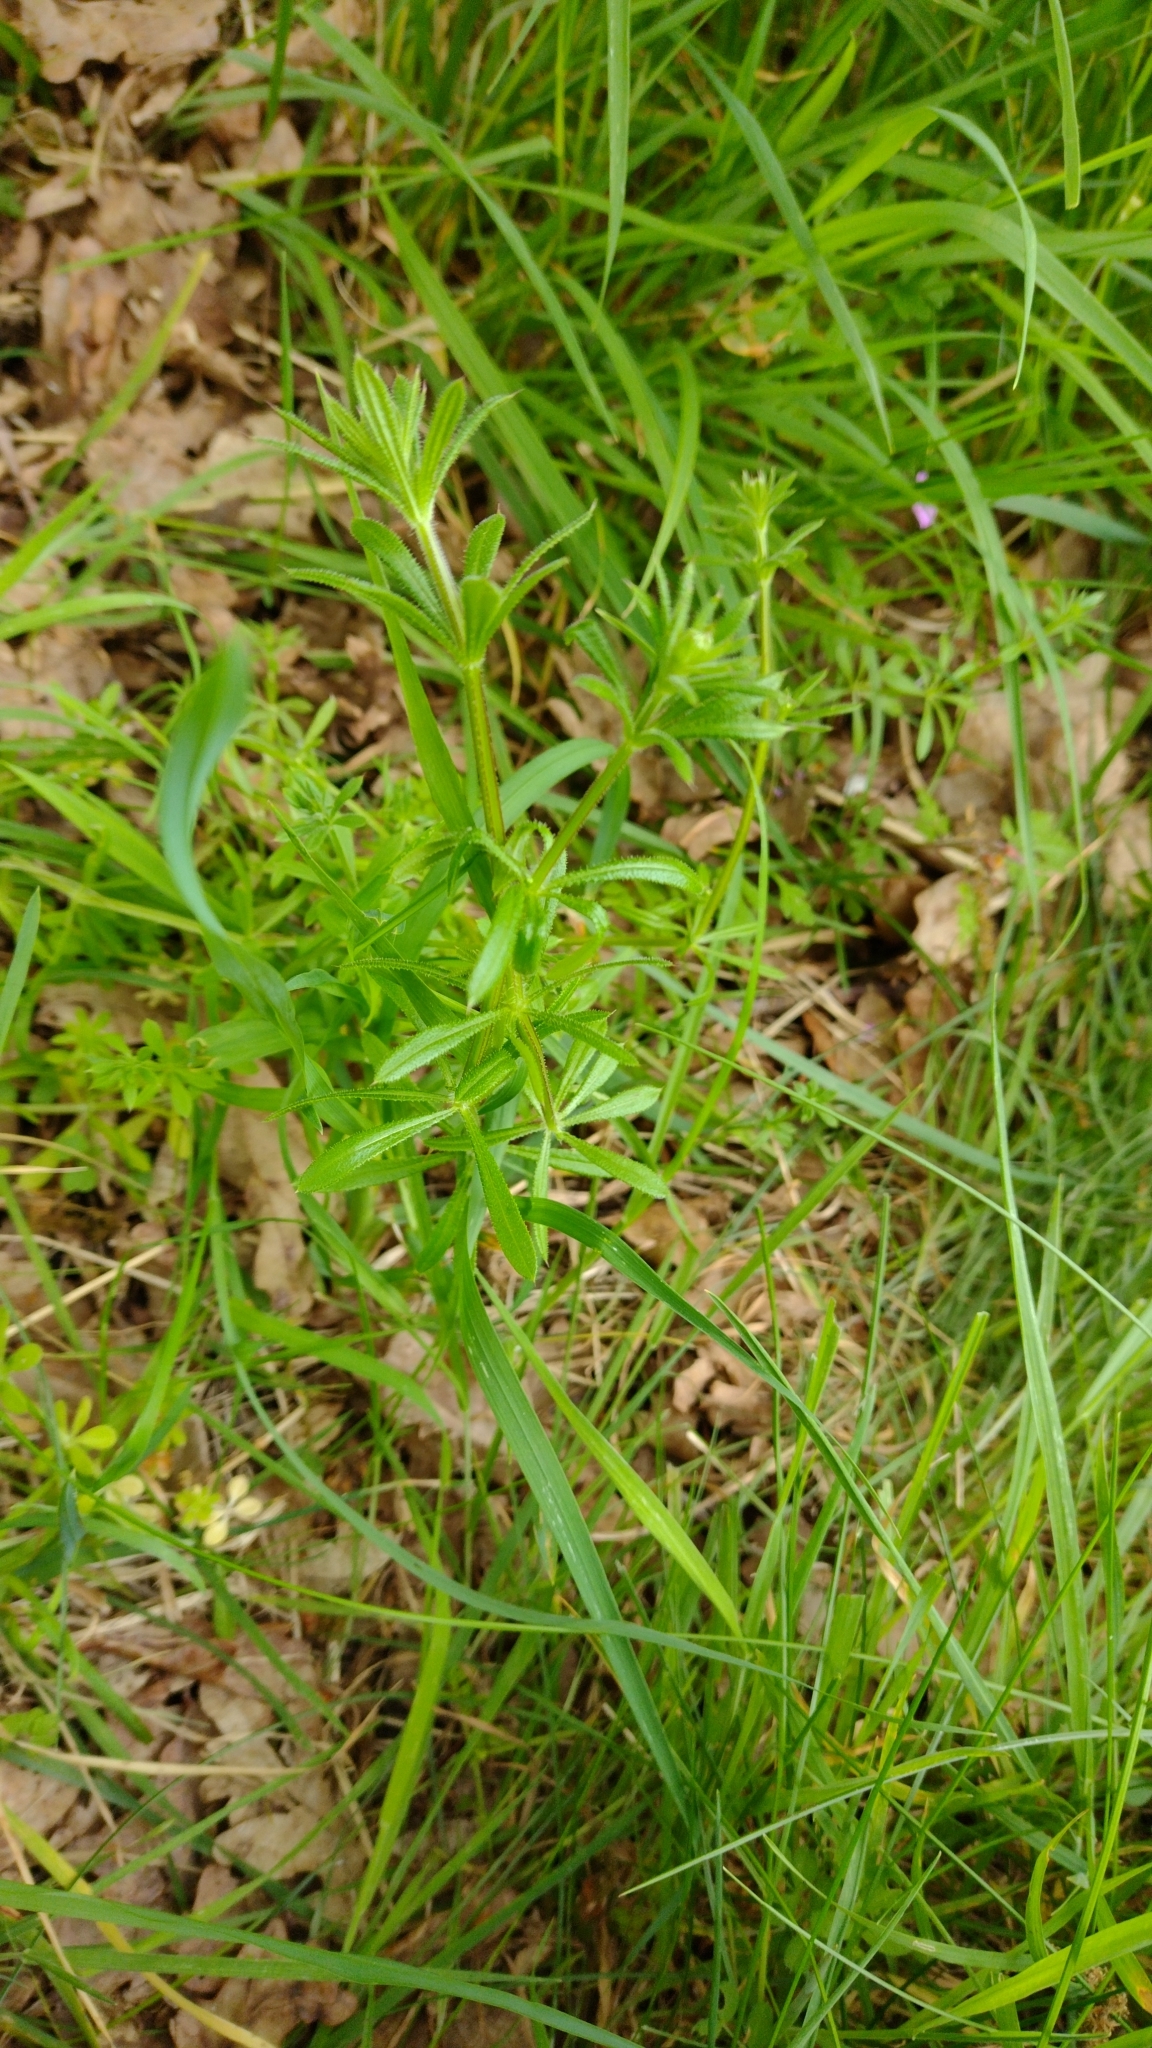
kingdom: Plantae
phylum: Tracheophyta
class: Magnoliopsida
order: Gentianales
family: Rubiaceae
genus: Galium
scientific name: Galium aparine
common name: Cleavers
